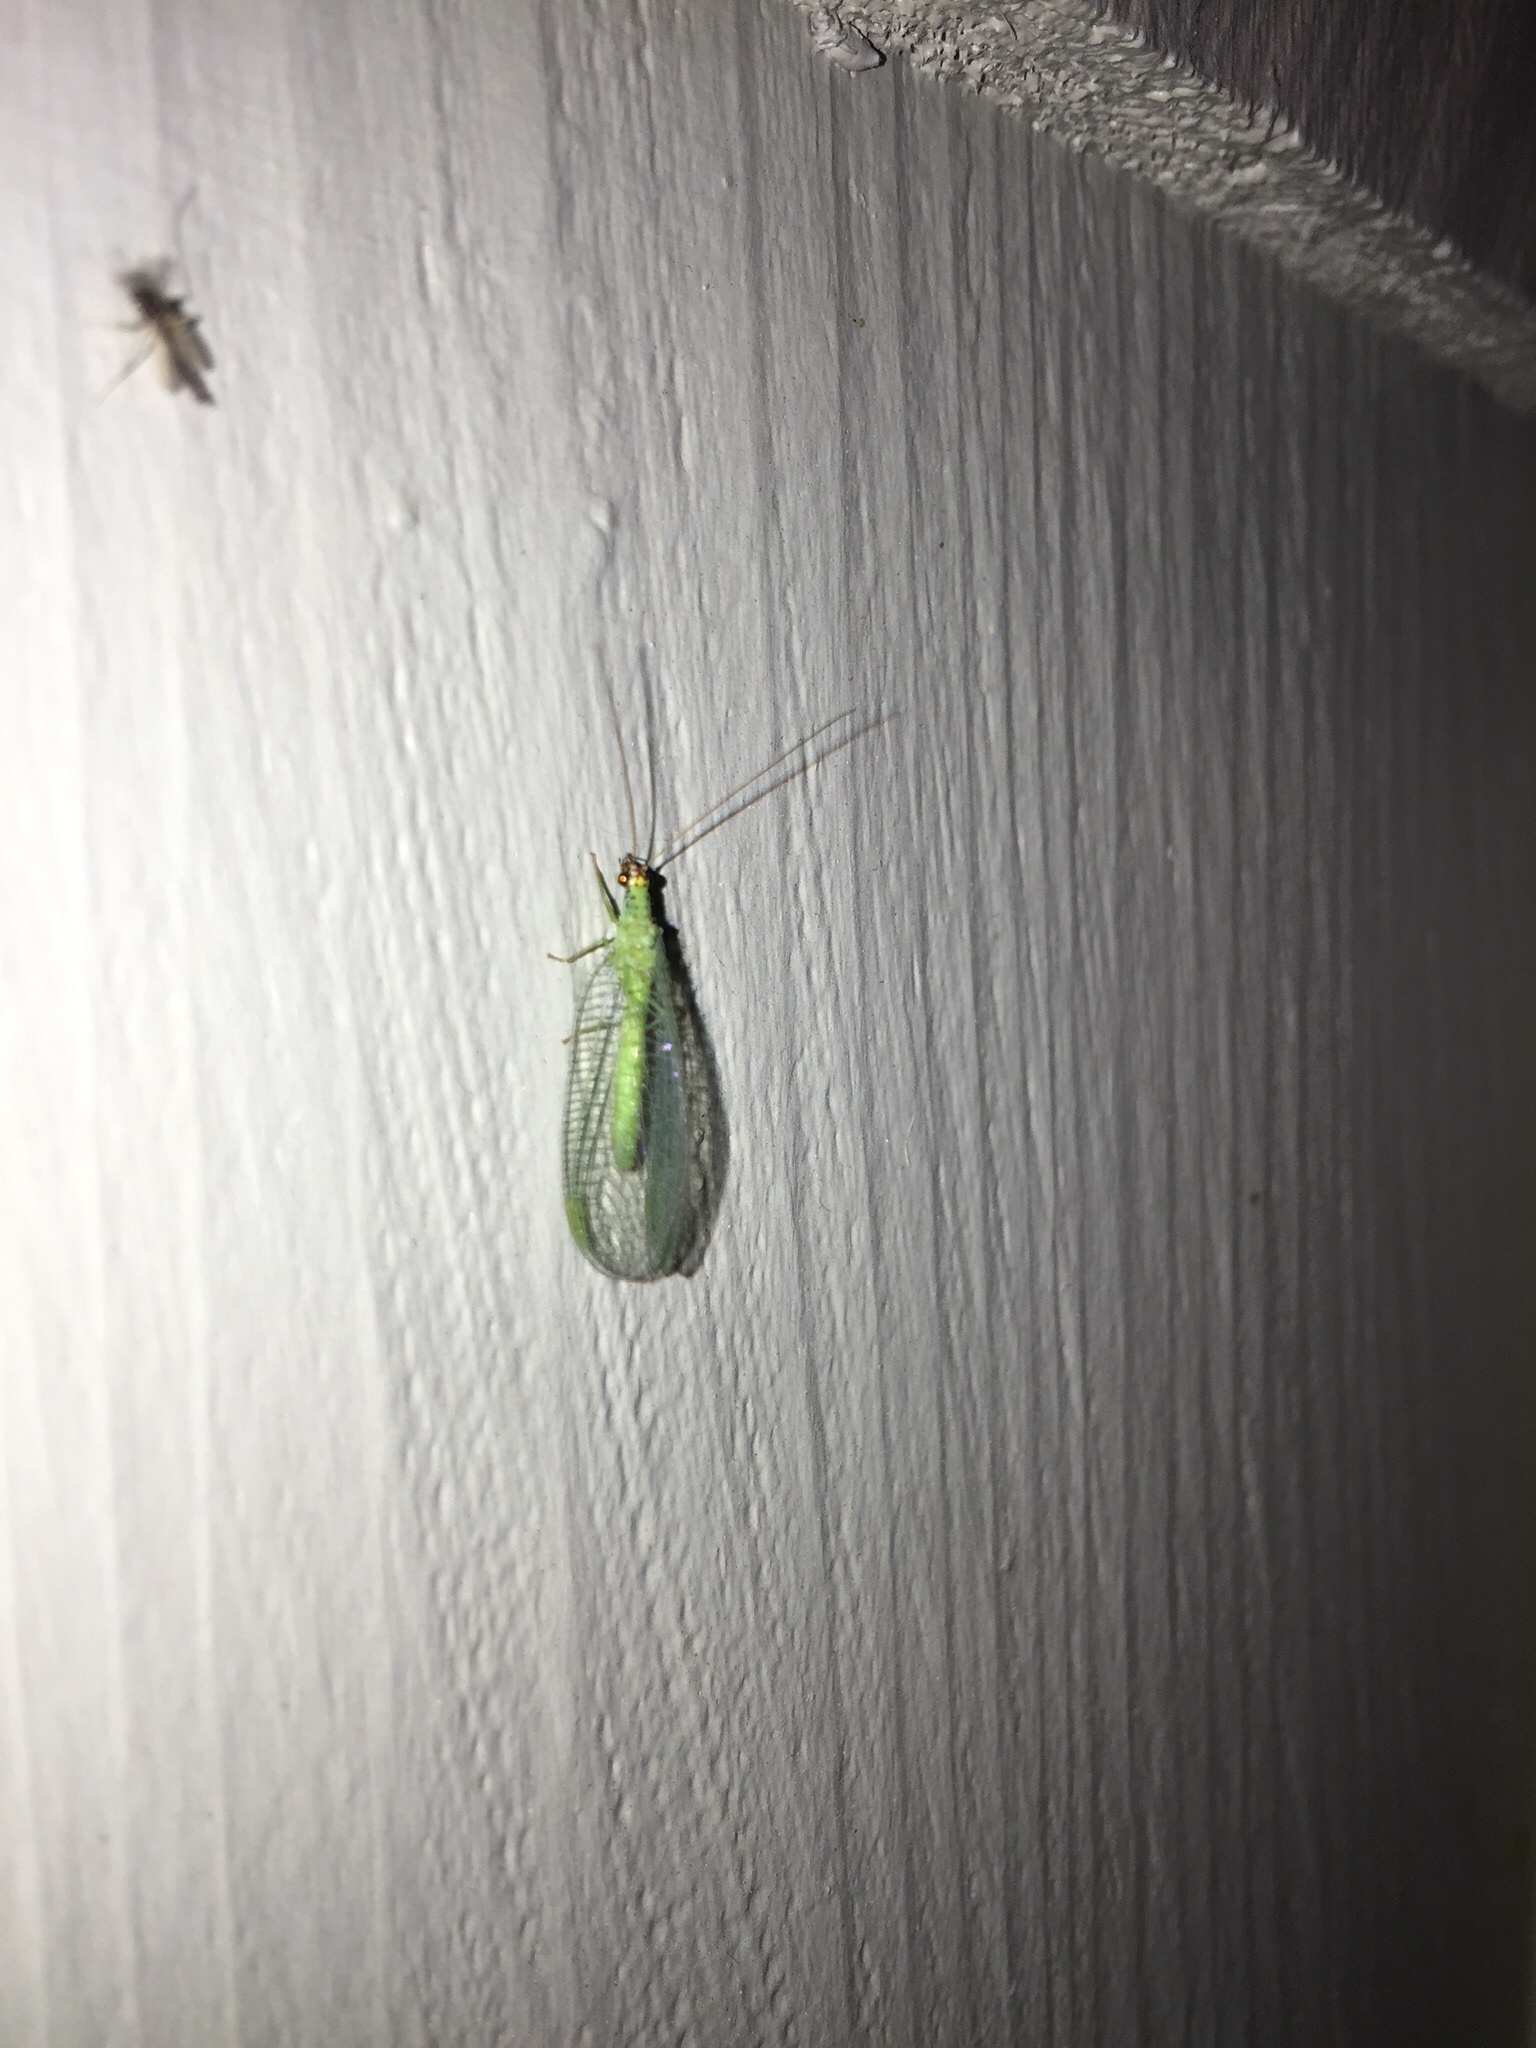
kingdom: Animalia
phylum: Arthropoda
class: Insecta
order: Neuroptera
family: Chrysopidae
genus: Chrysopa
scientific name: Chrysopa oculata
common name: Golden-eyed lacewing
